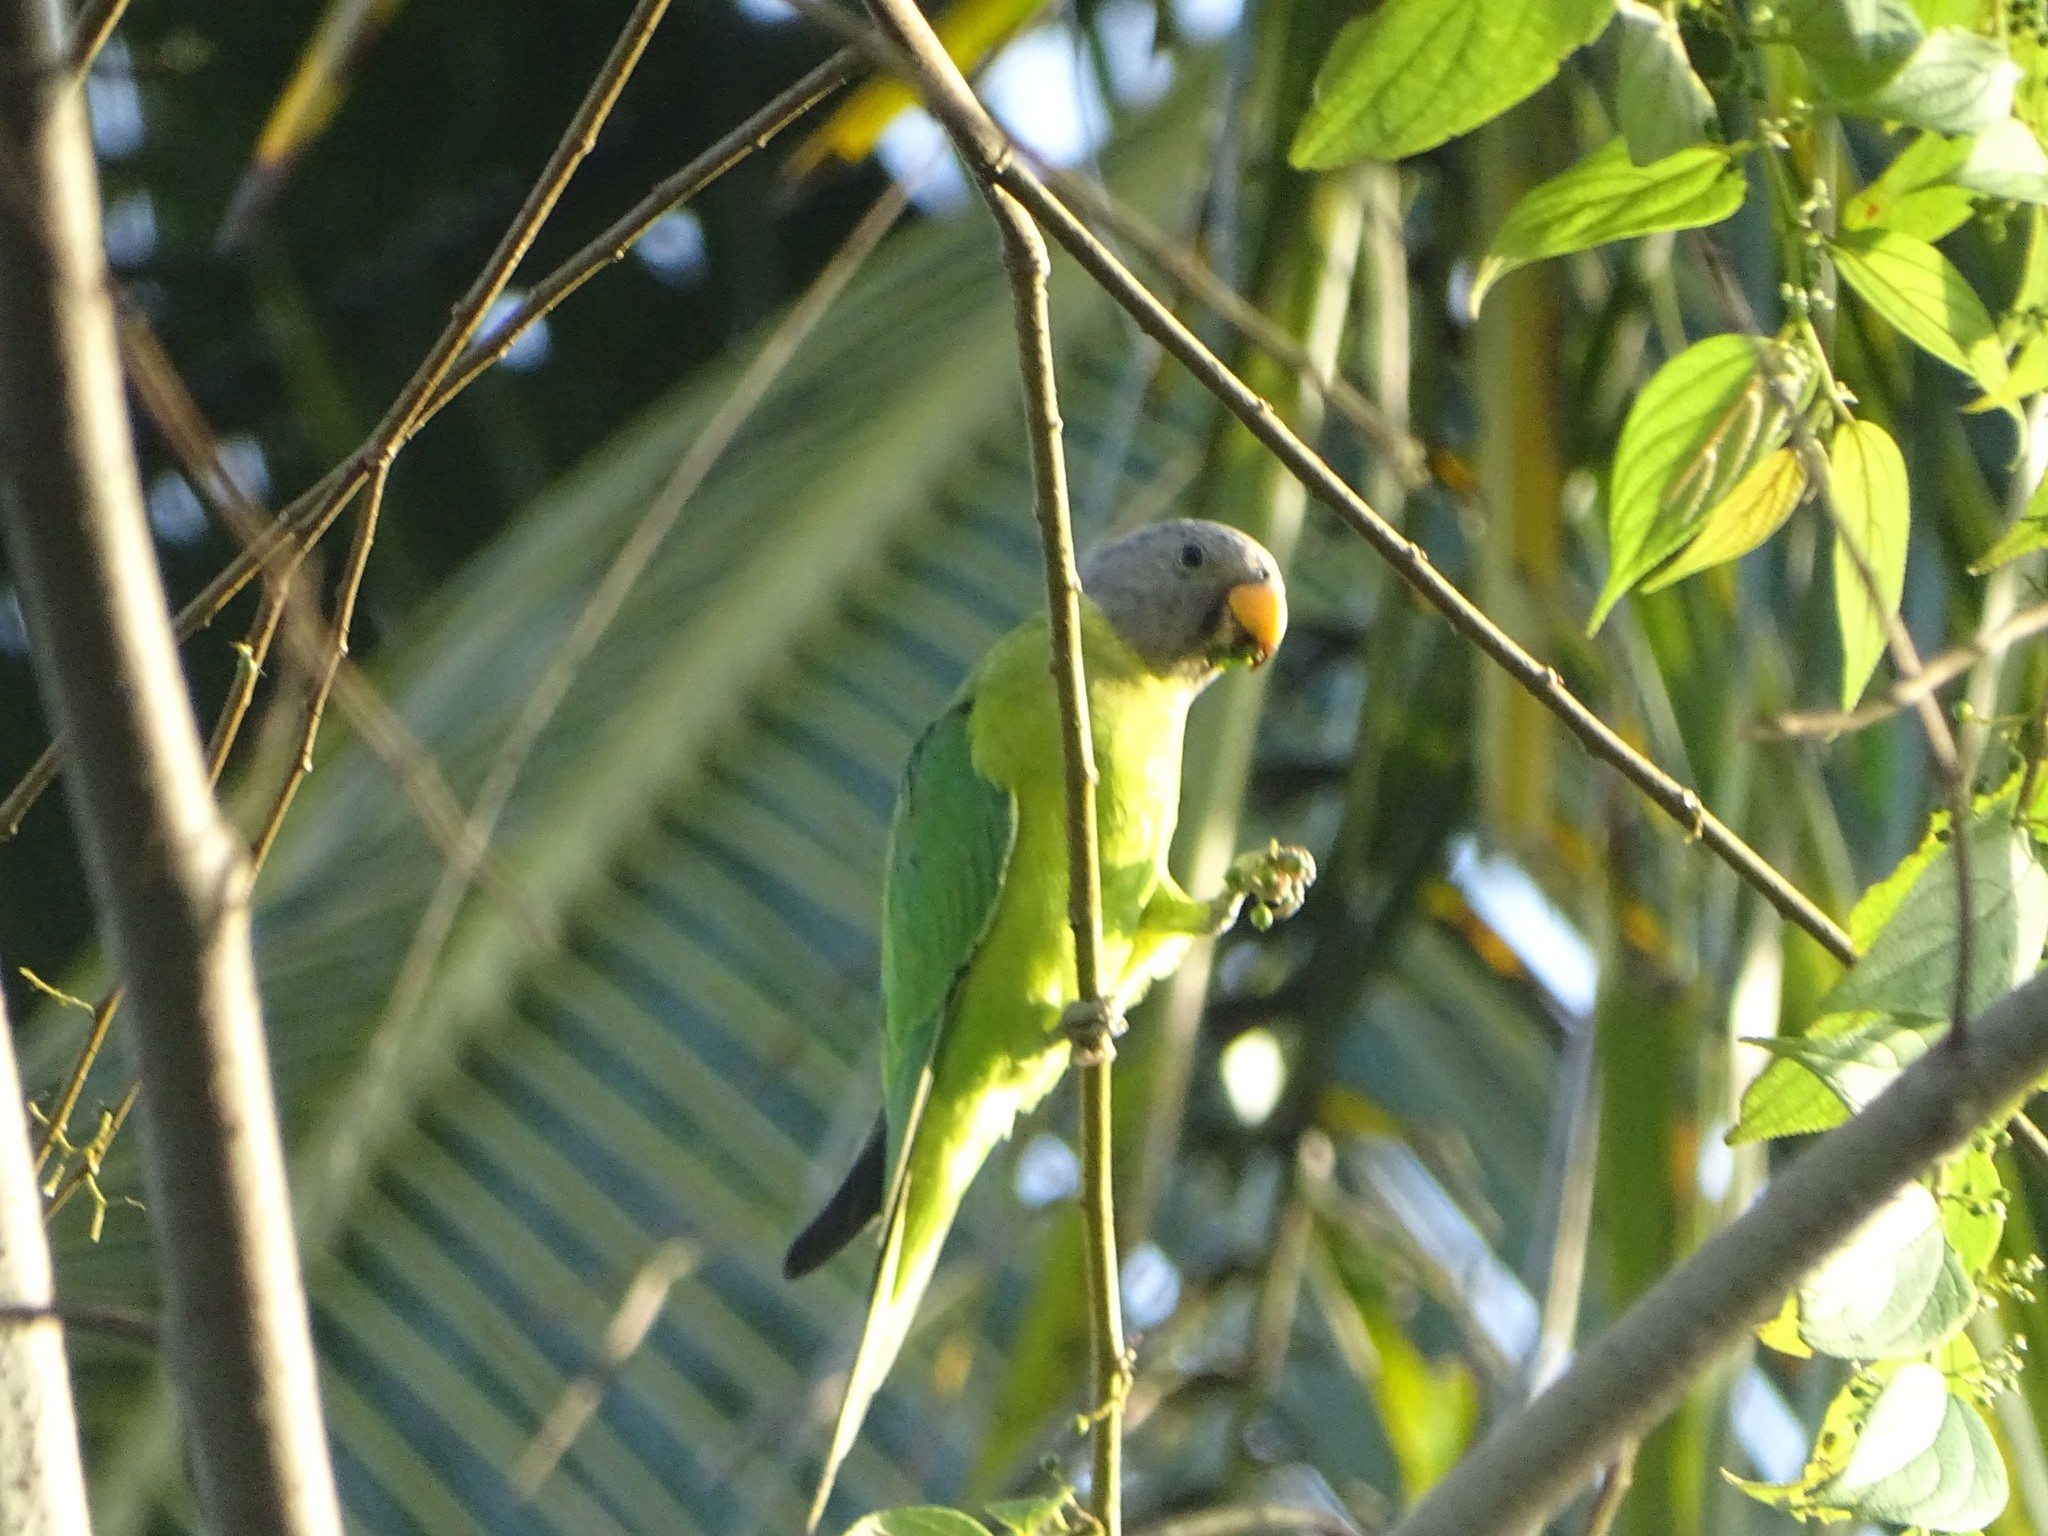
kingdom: Animalia
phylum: Chordata
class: Aves
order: Psittaciformes
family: Psittacidae
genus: Psittacula
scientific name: Psittacula cyanocephala
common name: Plum-headed parakeet
